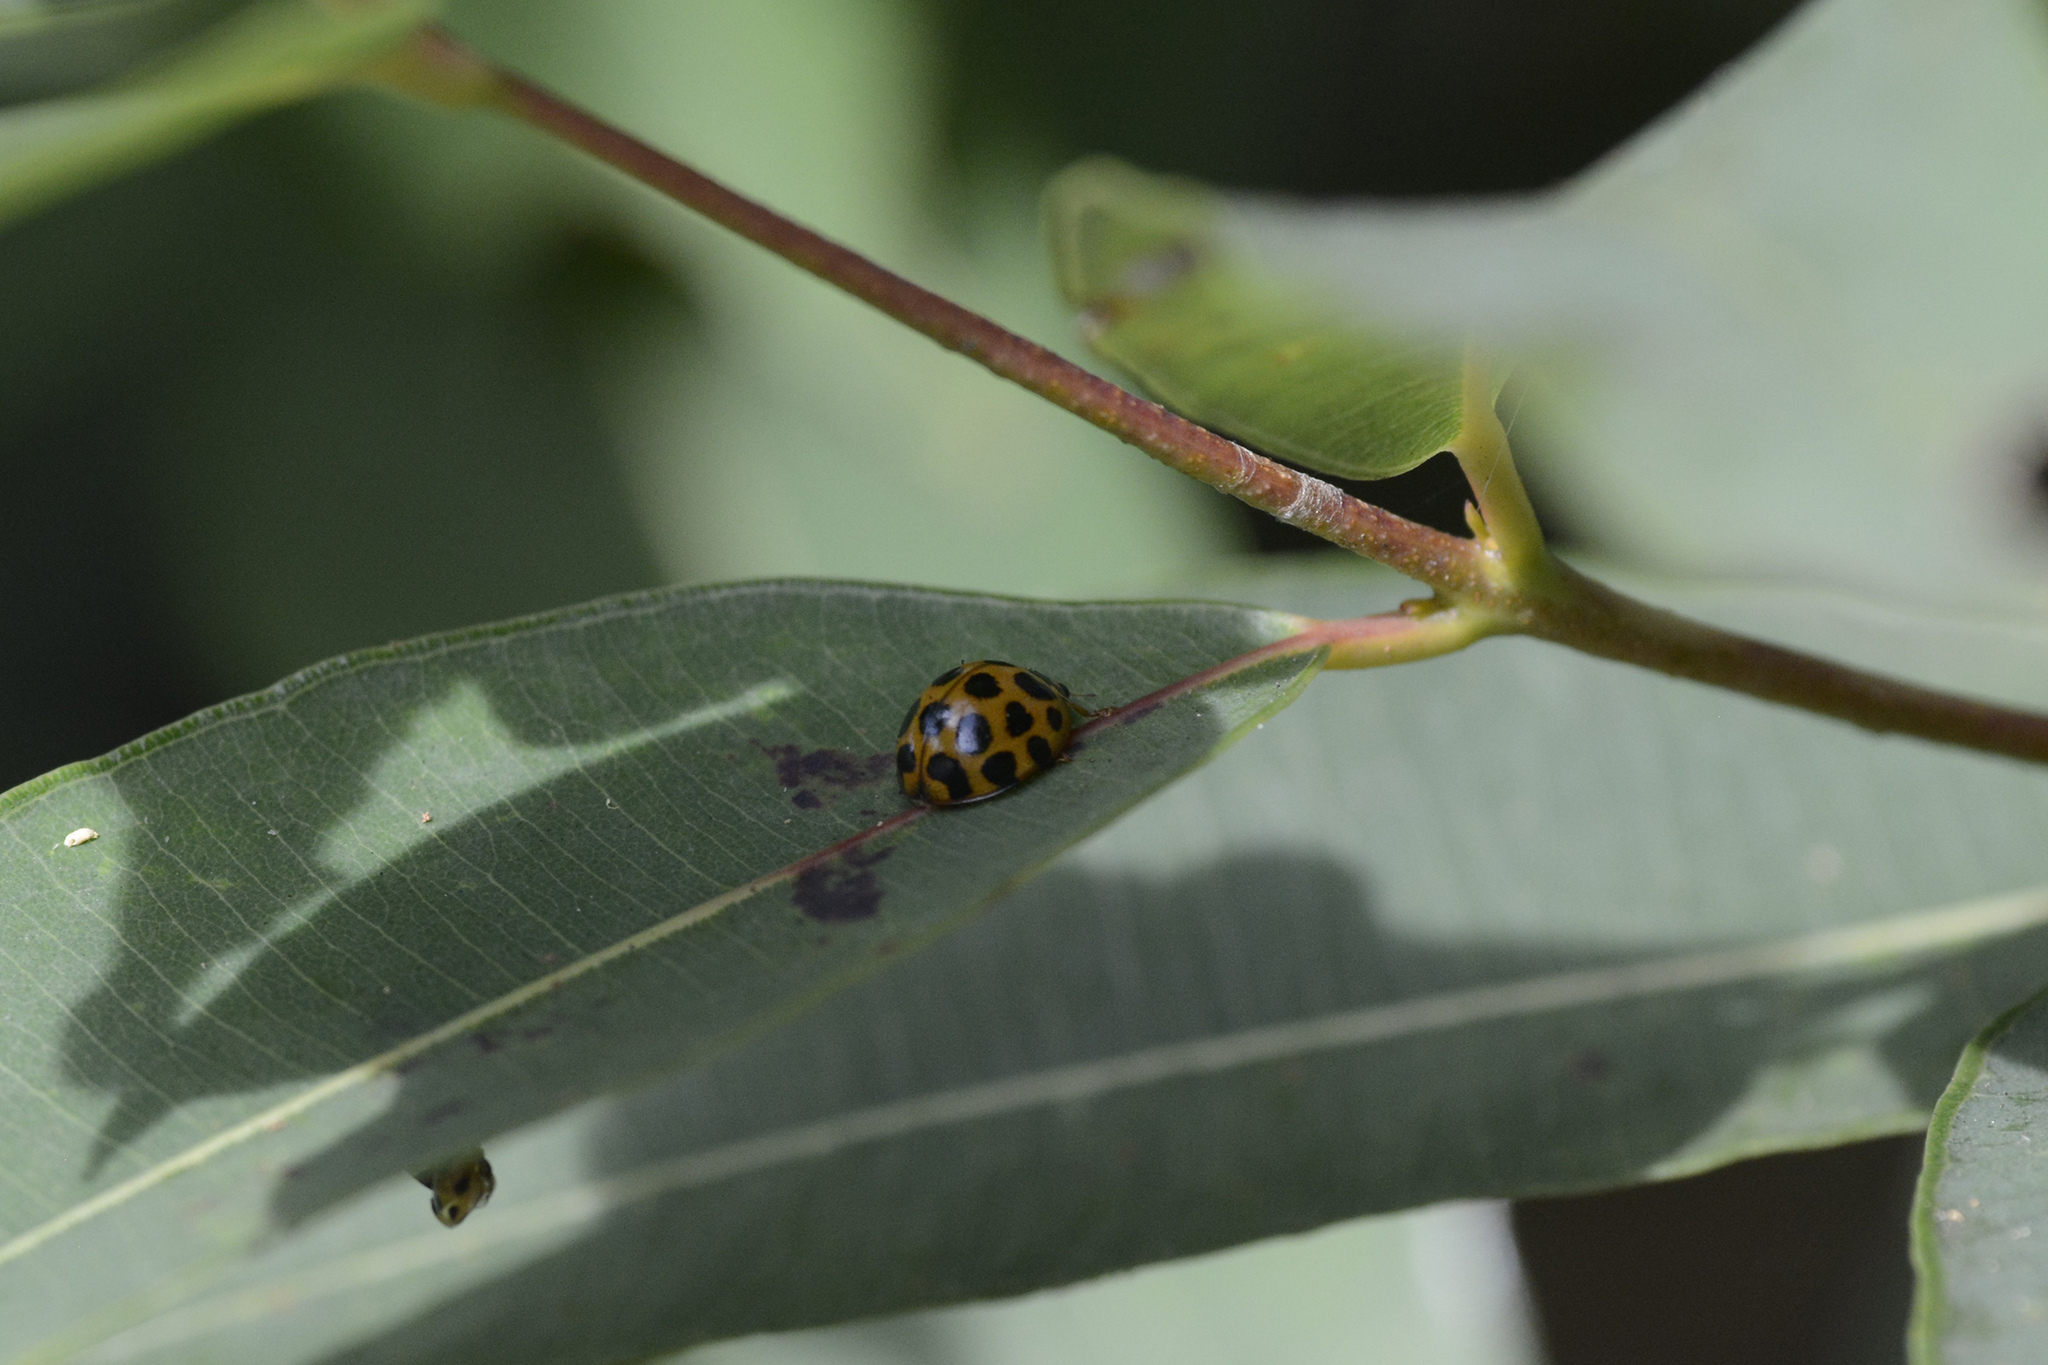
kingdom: Animalia
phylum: Arthropoda
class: Insecta
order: Coleoptera
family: Coccinellidae
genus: Harmonia
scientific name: Harmonia conformis
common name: Common spotted ladybird beetle
